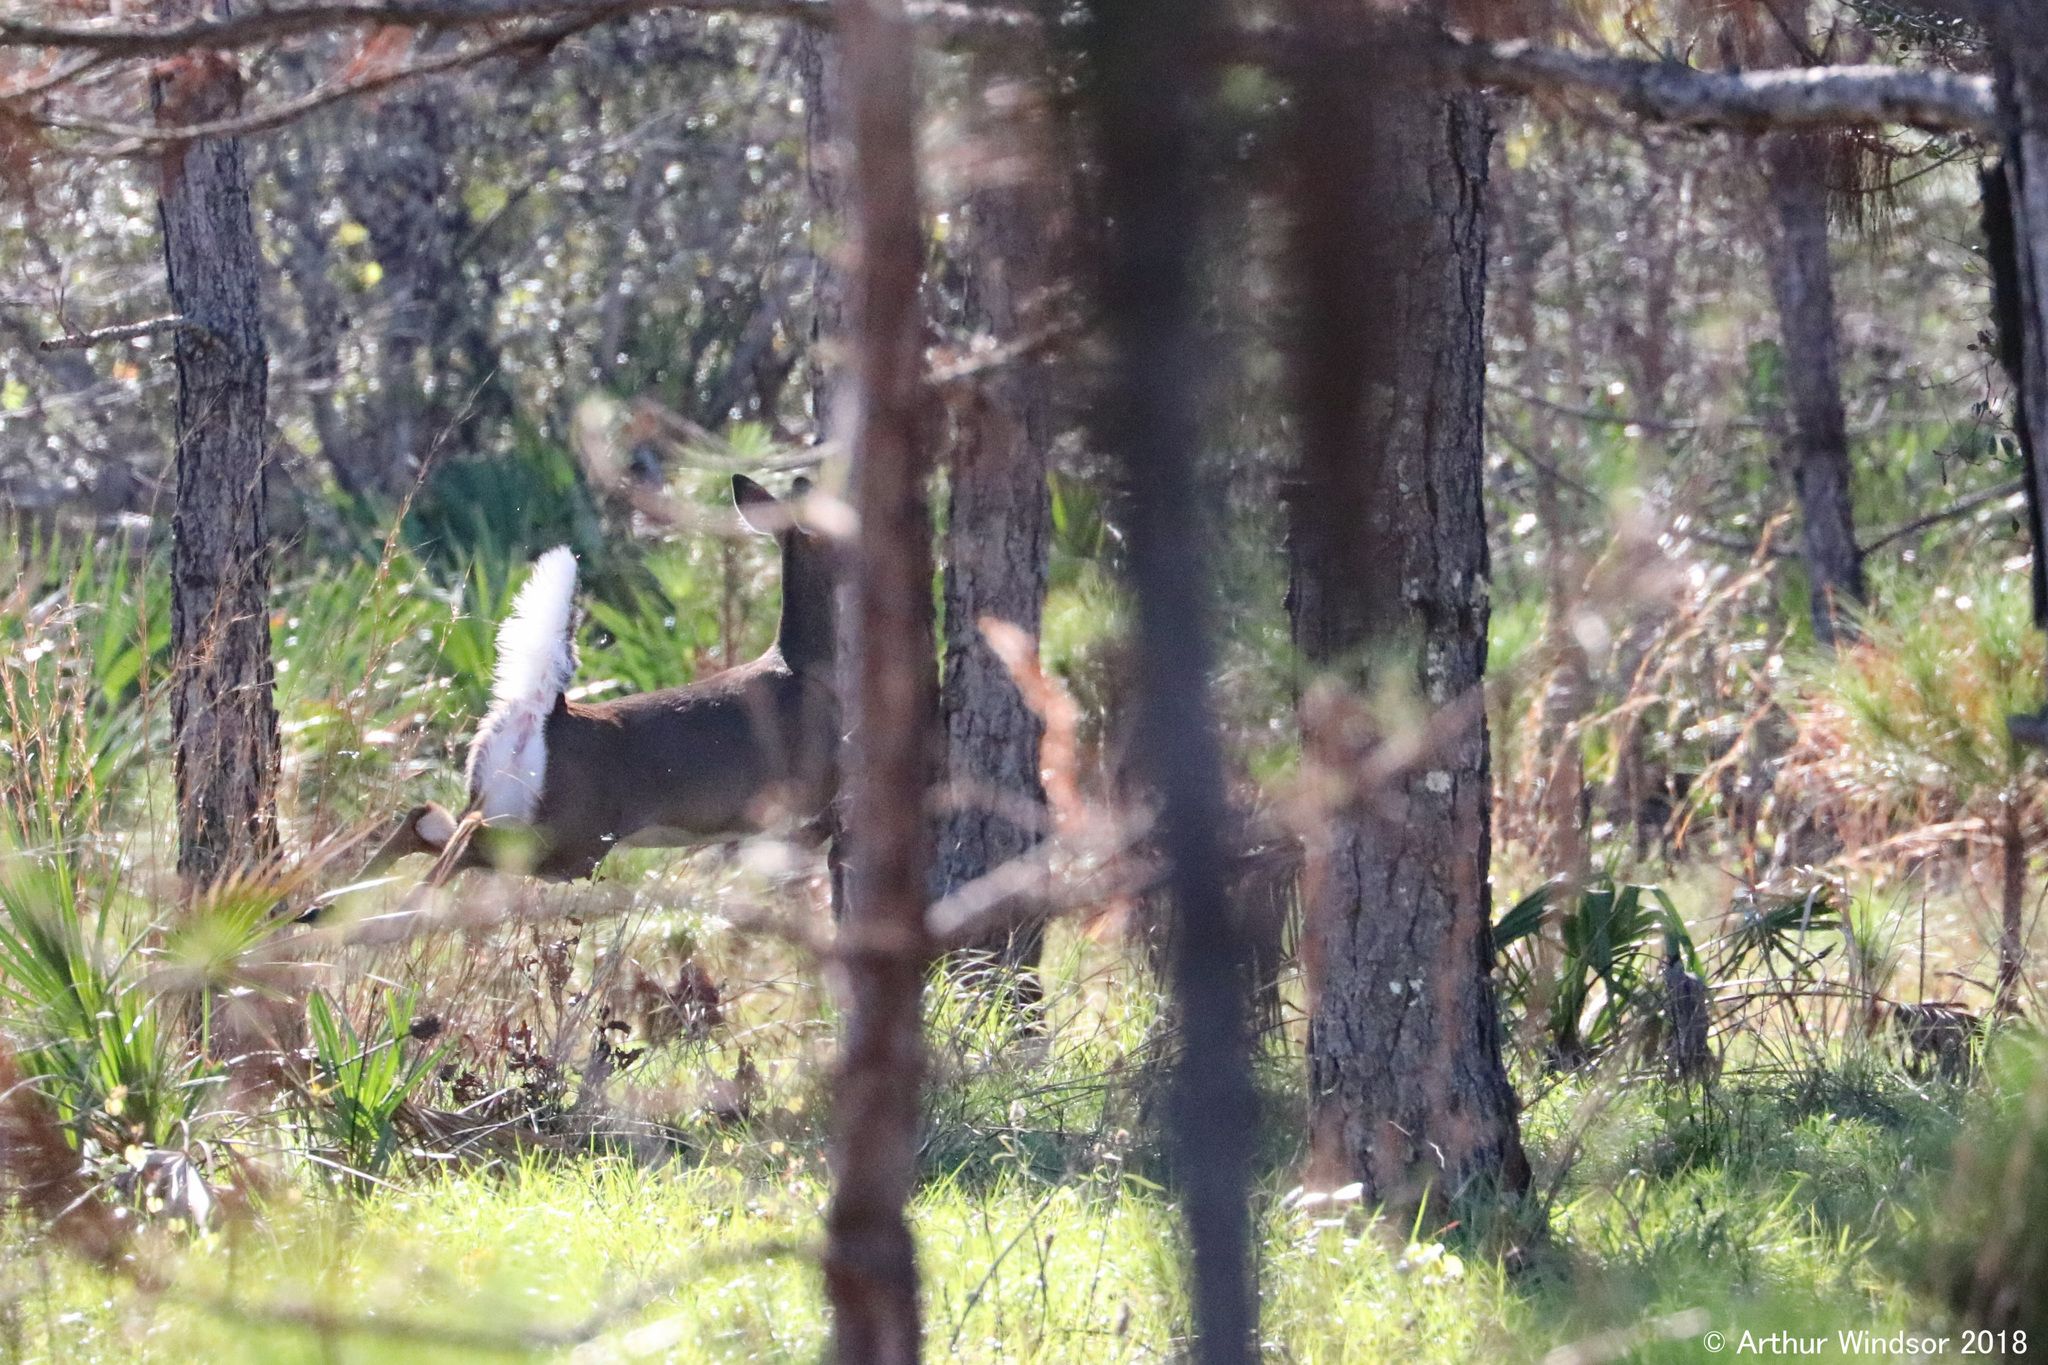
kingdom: Animalia
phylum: Chordata
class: Mammalia
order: Artiodactyla
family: Cervidae
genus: Odocoileus
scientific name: Odocoileus virginianus
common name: White-tailed deer
